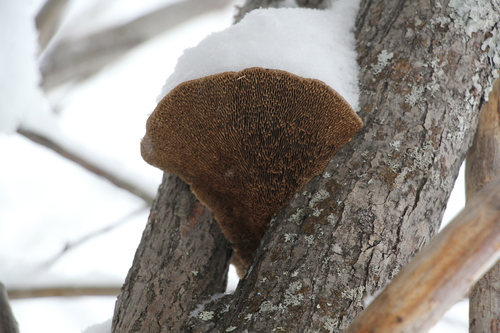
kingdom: Fungi
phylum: Basidiomycota
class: Agaricomycetes
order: Polyporales
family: Polyporaceae
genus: Daedaleopsis
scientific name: Daedaleopsis confragosa
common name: Blushing bracket
